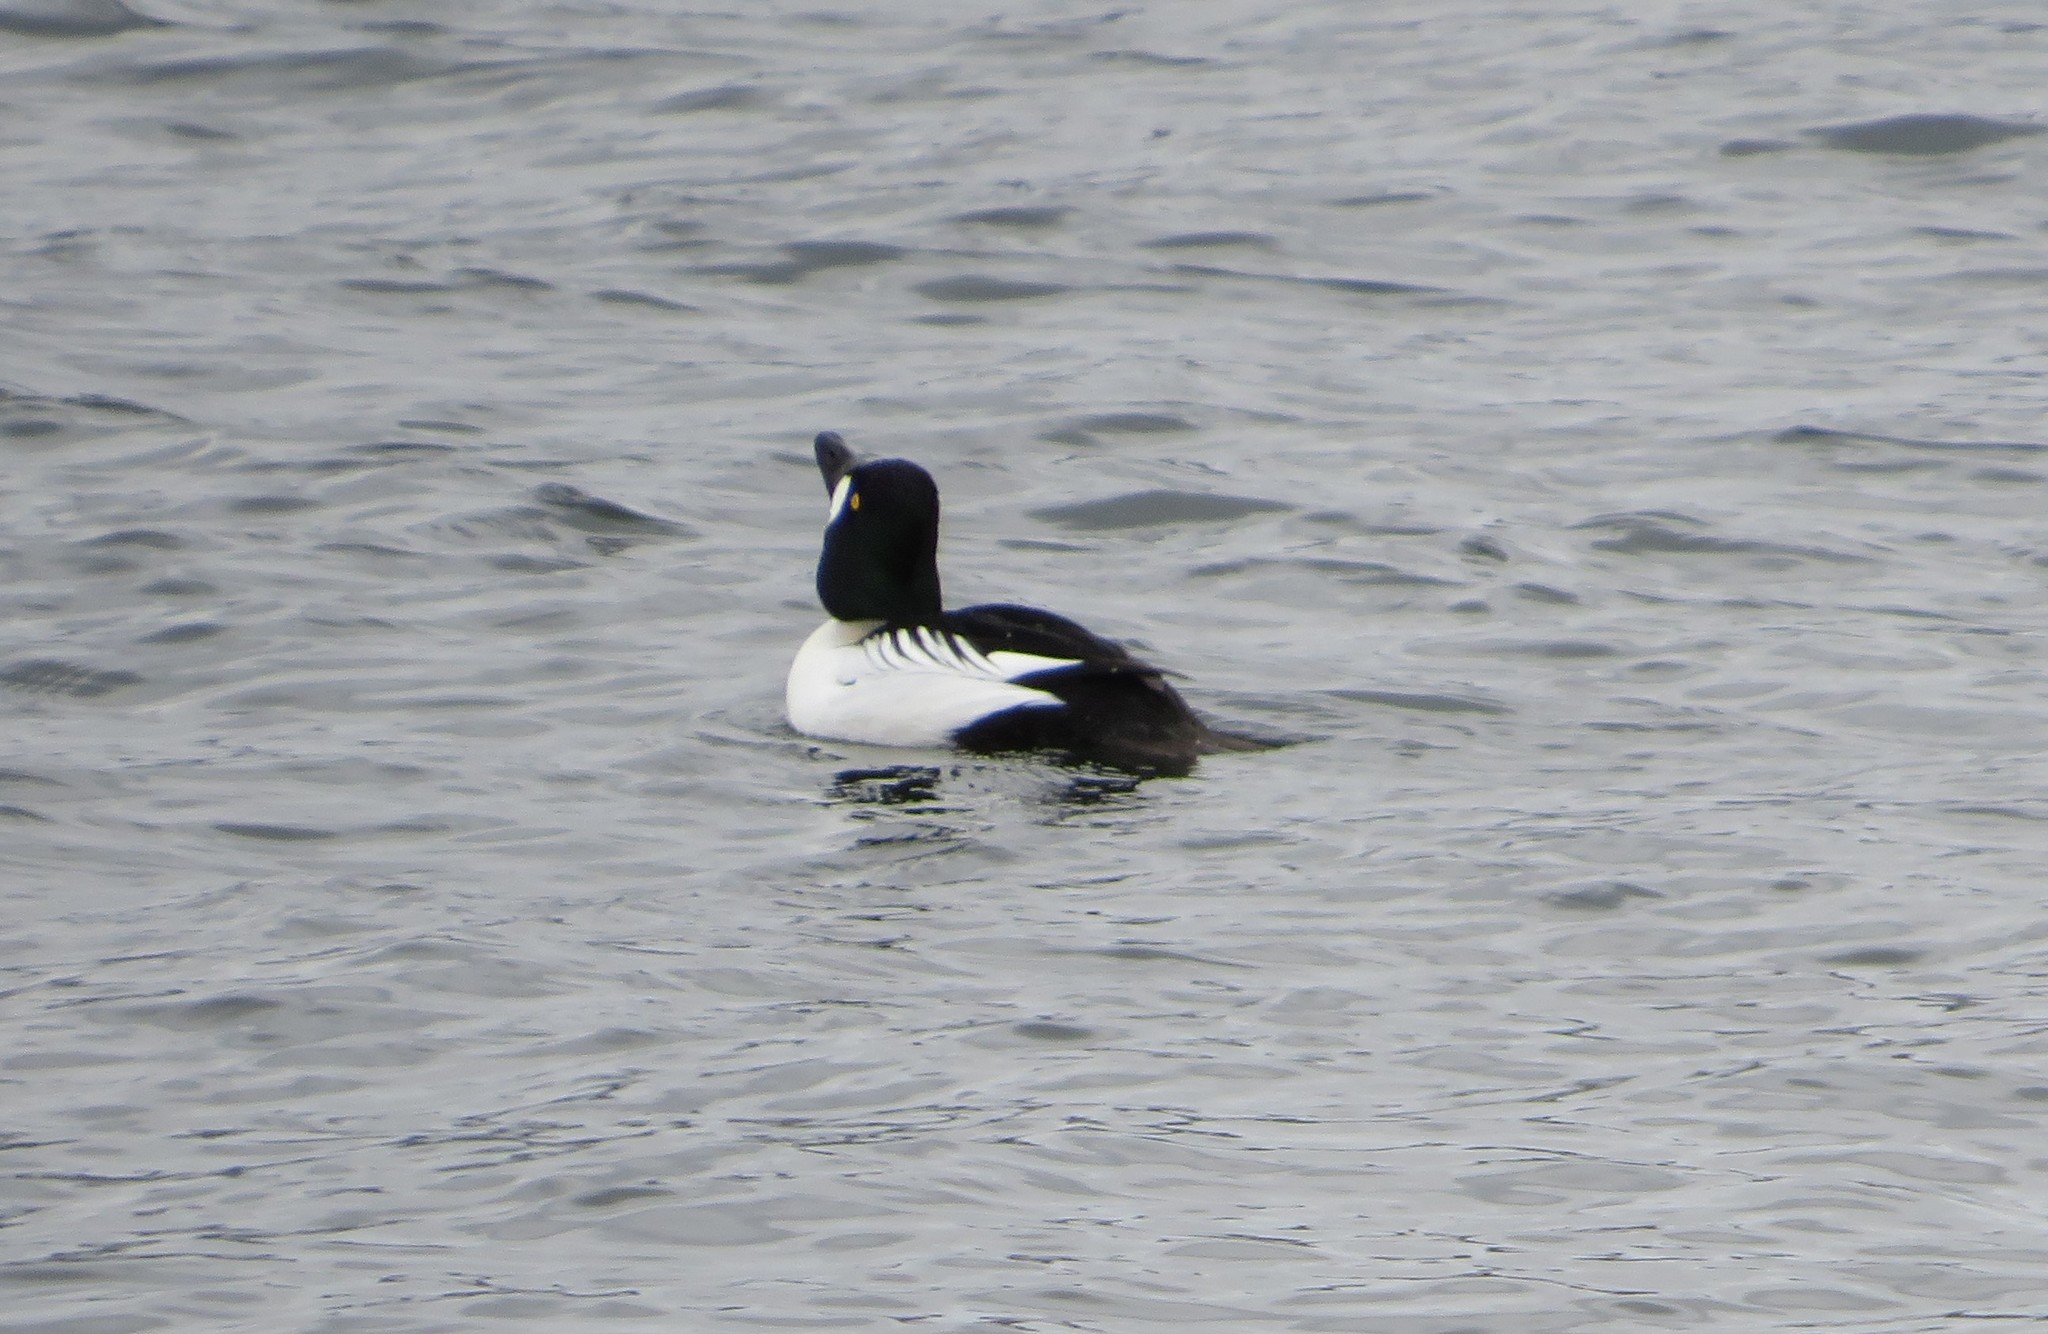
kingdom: Animalia
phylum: Chordata
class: Aves
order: Anseriformes
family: Anatidae
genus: Bucephala
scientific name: Bucephala clangula
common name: Common goldeneye
